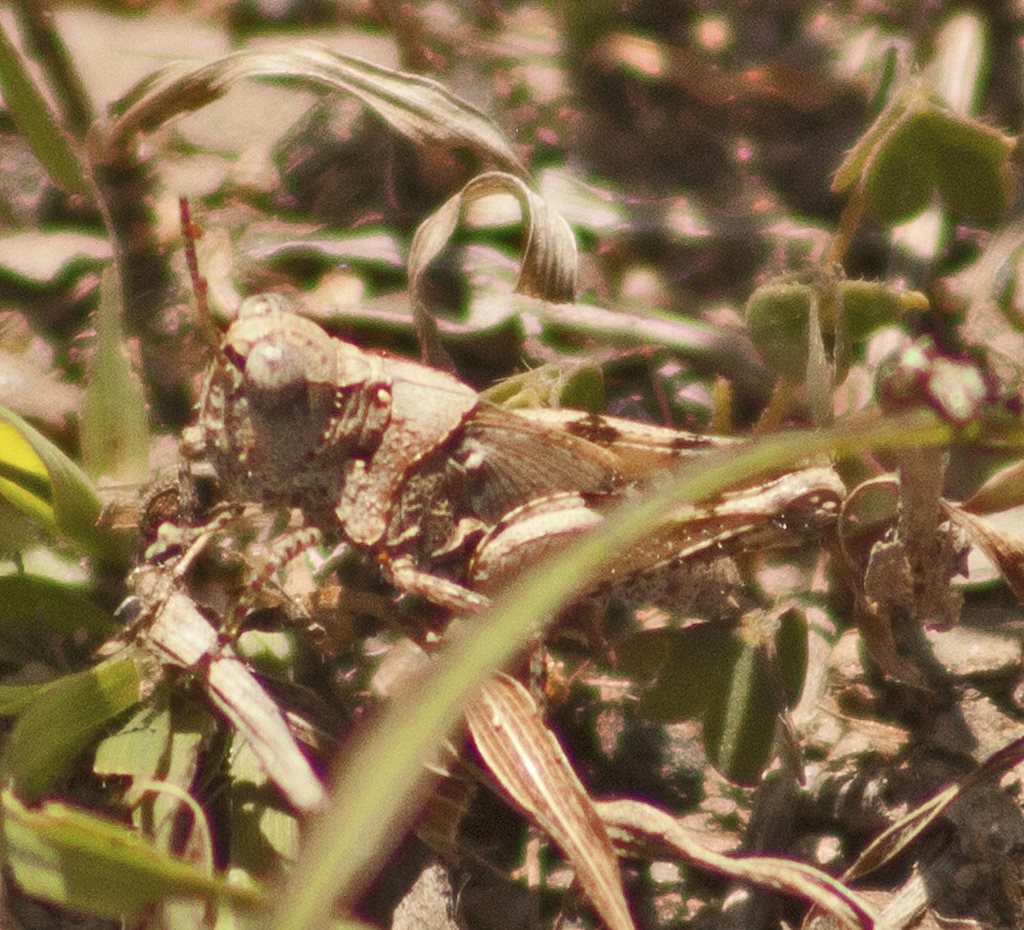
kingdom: Animalia
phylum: Arthropoda
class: Insecta
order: Orthoptera
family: Acrididae
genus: Pycnostictus
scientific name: Pycnostictus seriatus
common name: Common bandwing
